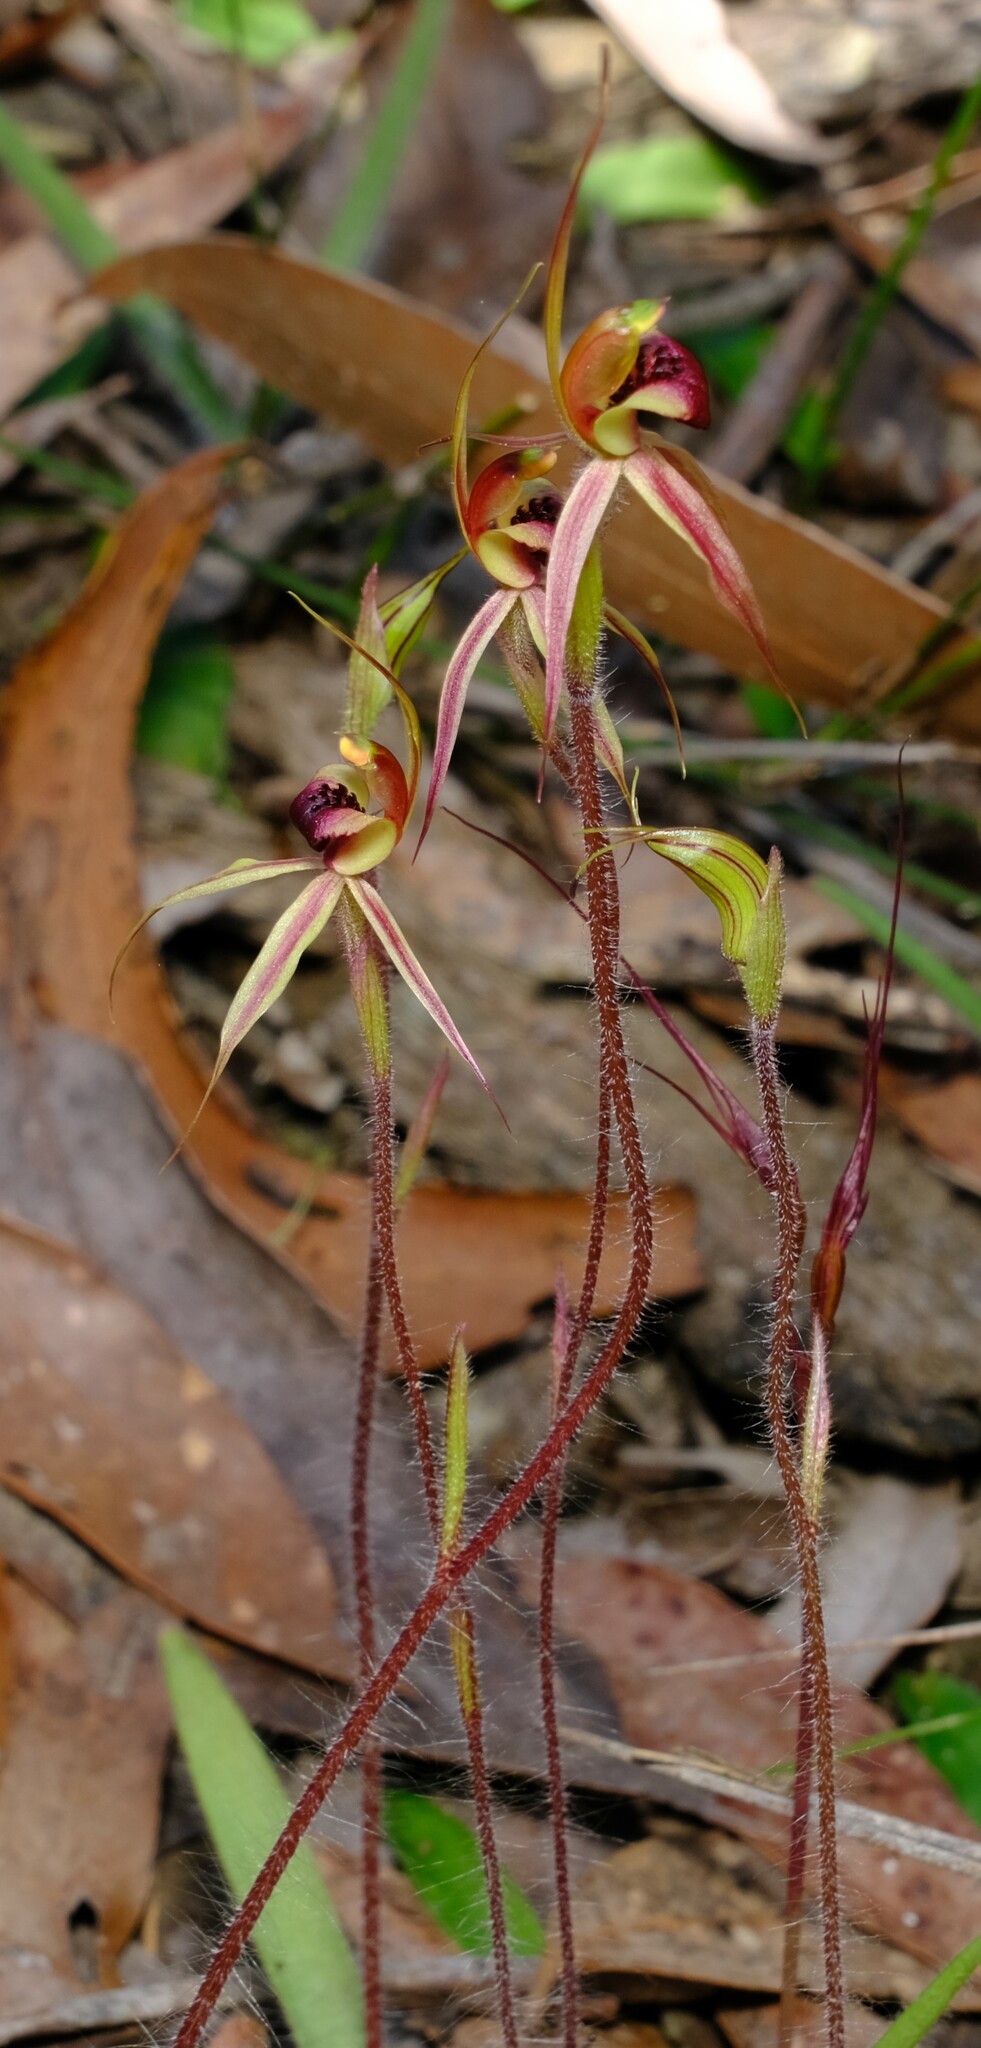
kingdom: Plantae
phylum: Tracheophyta
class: Liliopsida
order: Asparagales
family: Orchidaceae
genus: Caladenia
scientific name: Caladenia clavigera
